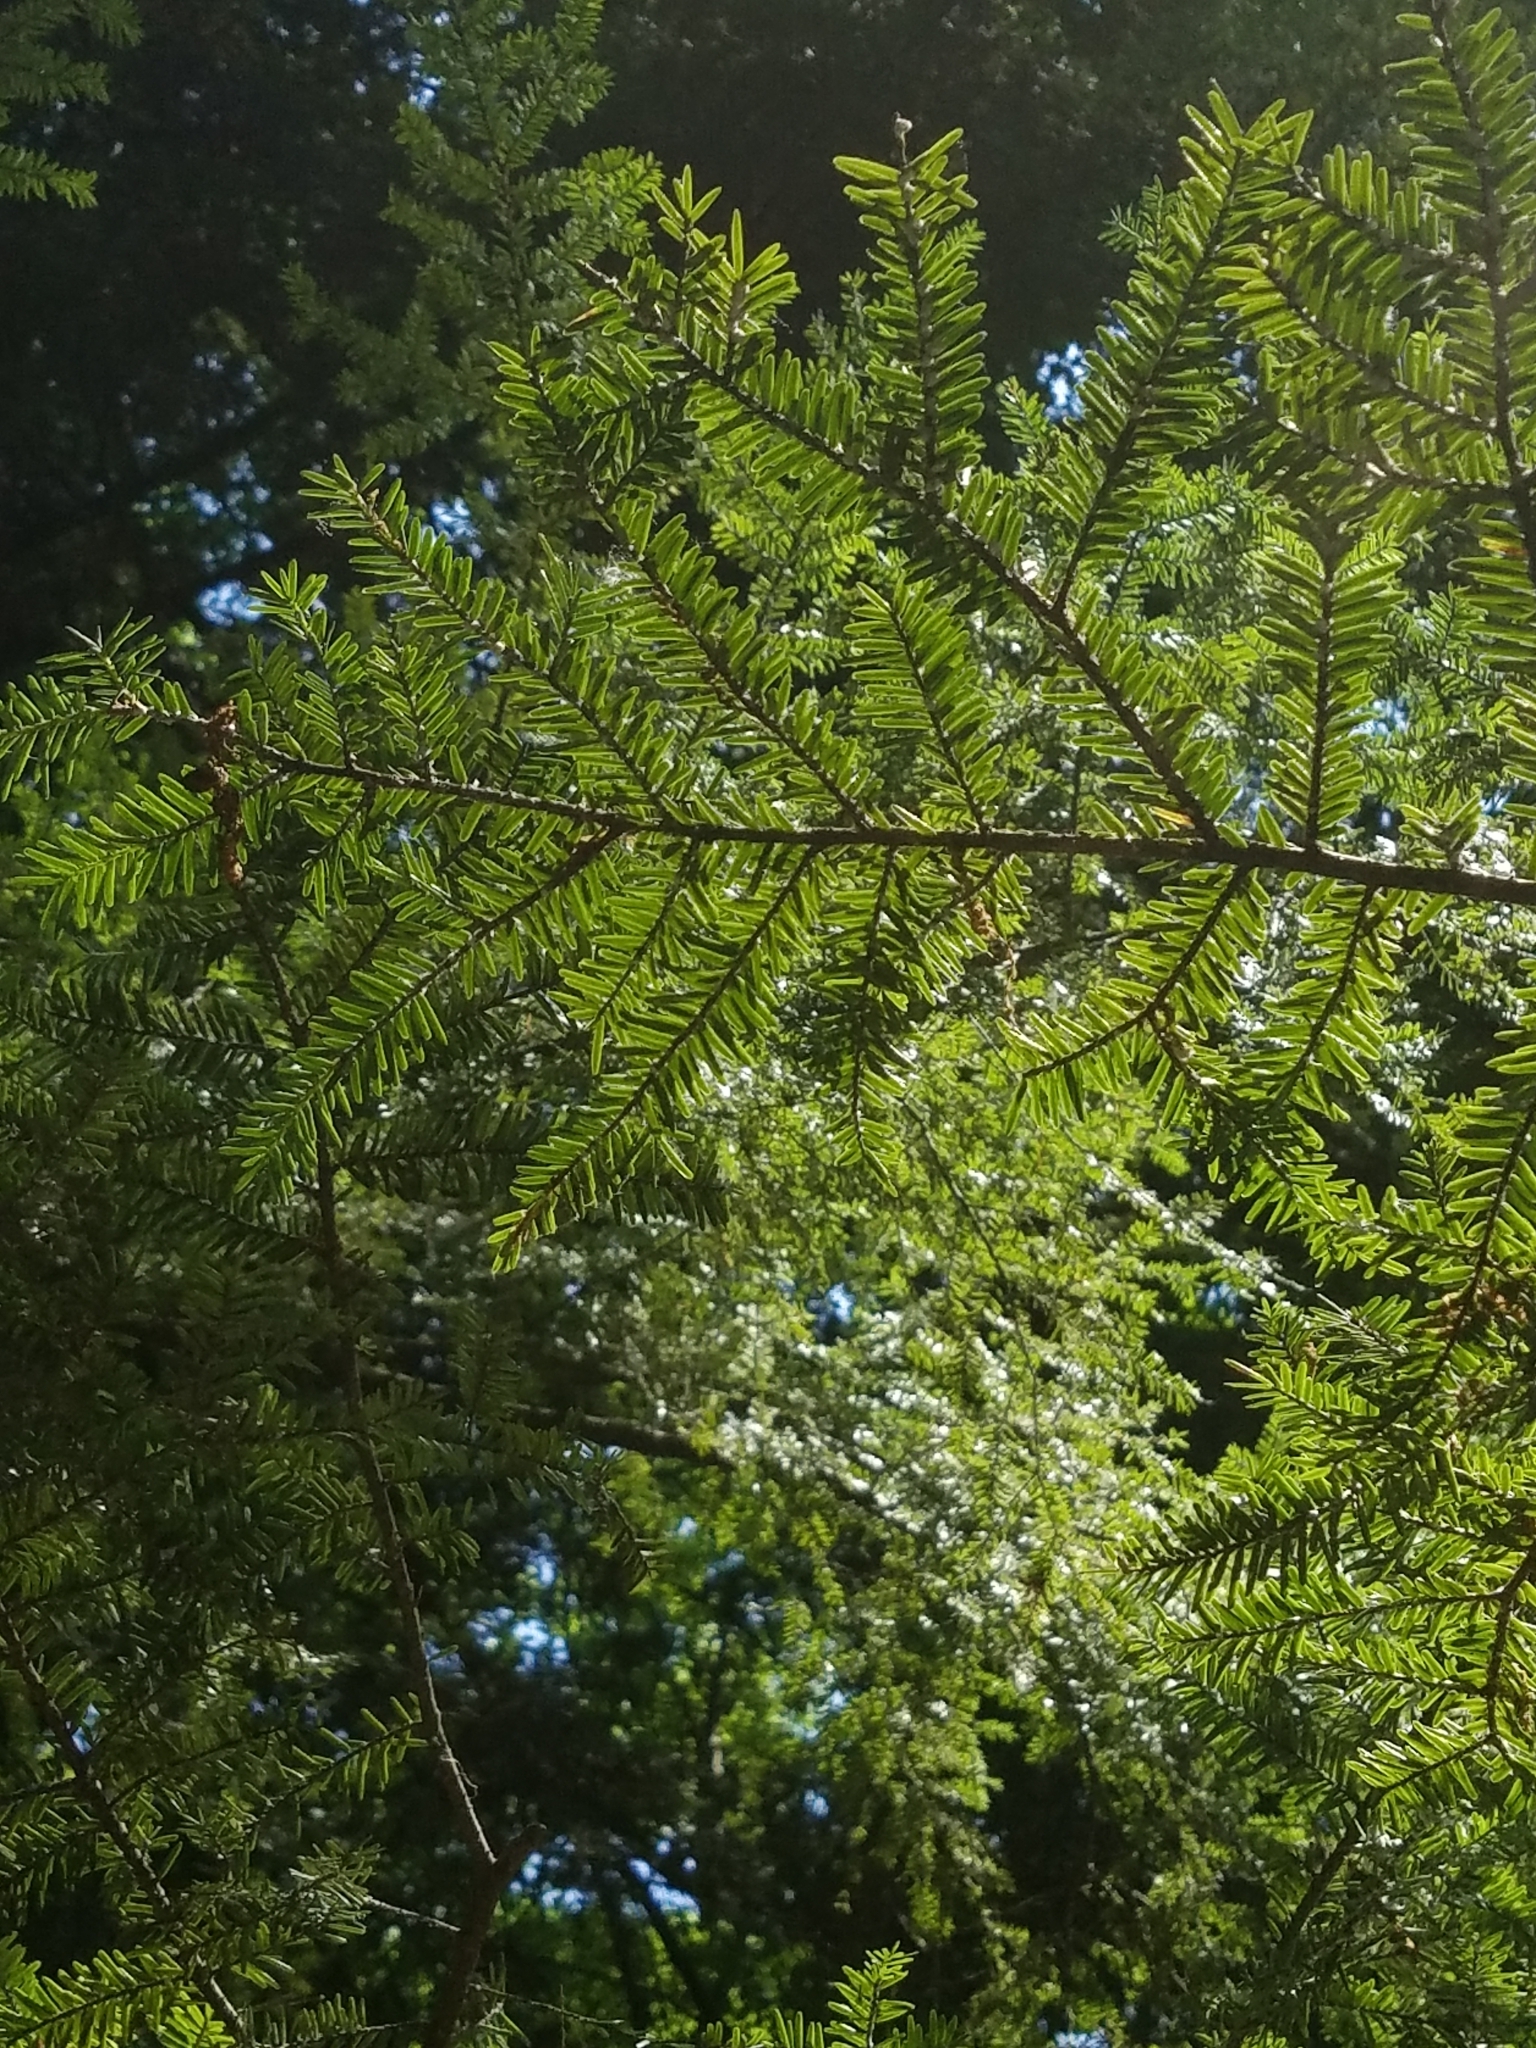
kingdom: Plantae
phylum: Tracheophyta
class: Pinopsida
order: Pinales
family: Pinaceae
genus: Tsuga
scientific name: Tsuga canadensis
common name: Eastern hemlock
